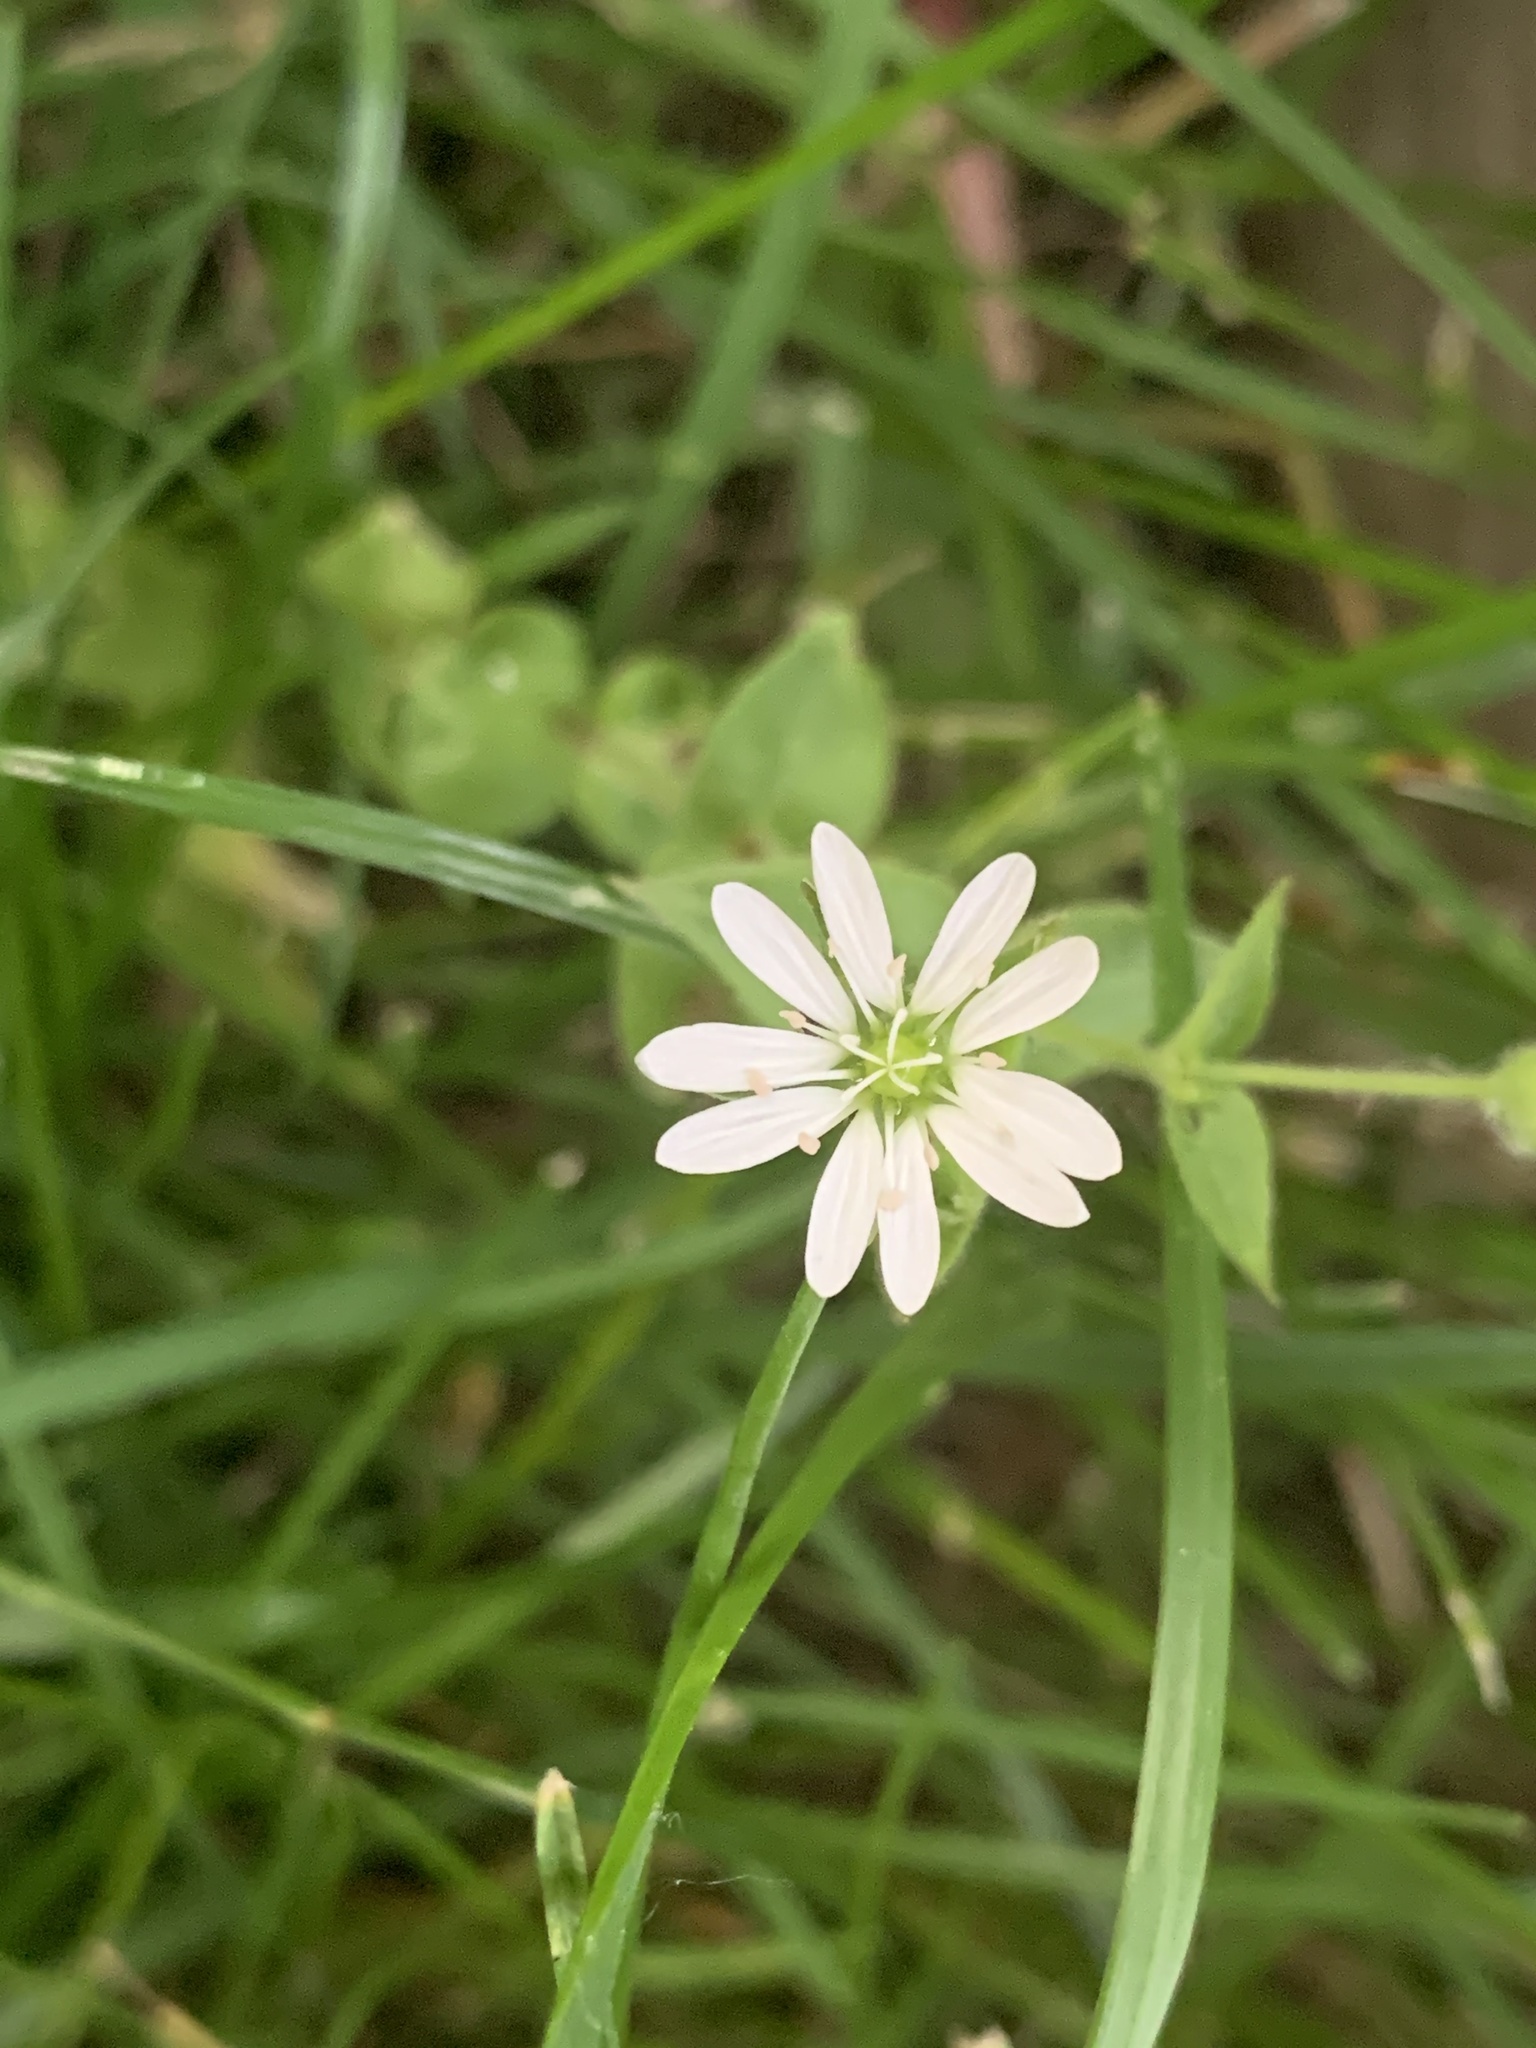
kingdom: Plantae
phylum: Tracheophyta
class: Magnoliopsida
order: Caryophyllales
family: Caryophyllaceae
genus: Stellaria
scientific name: Stellaria media
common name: Common chickweed
